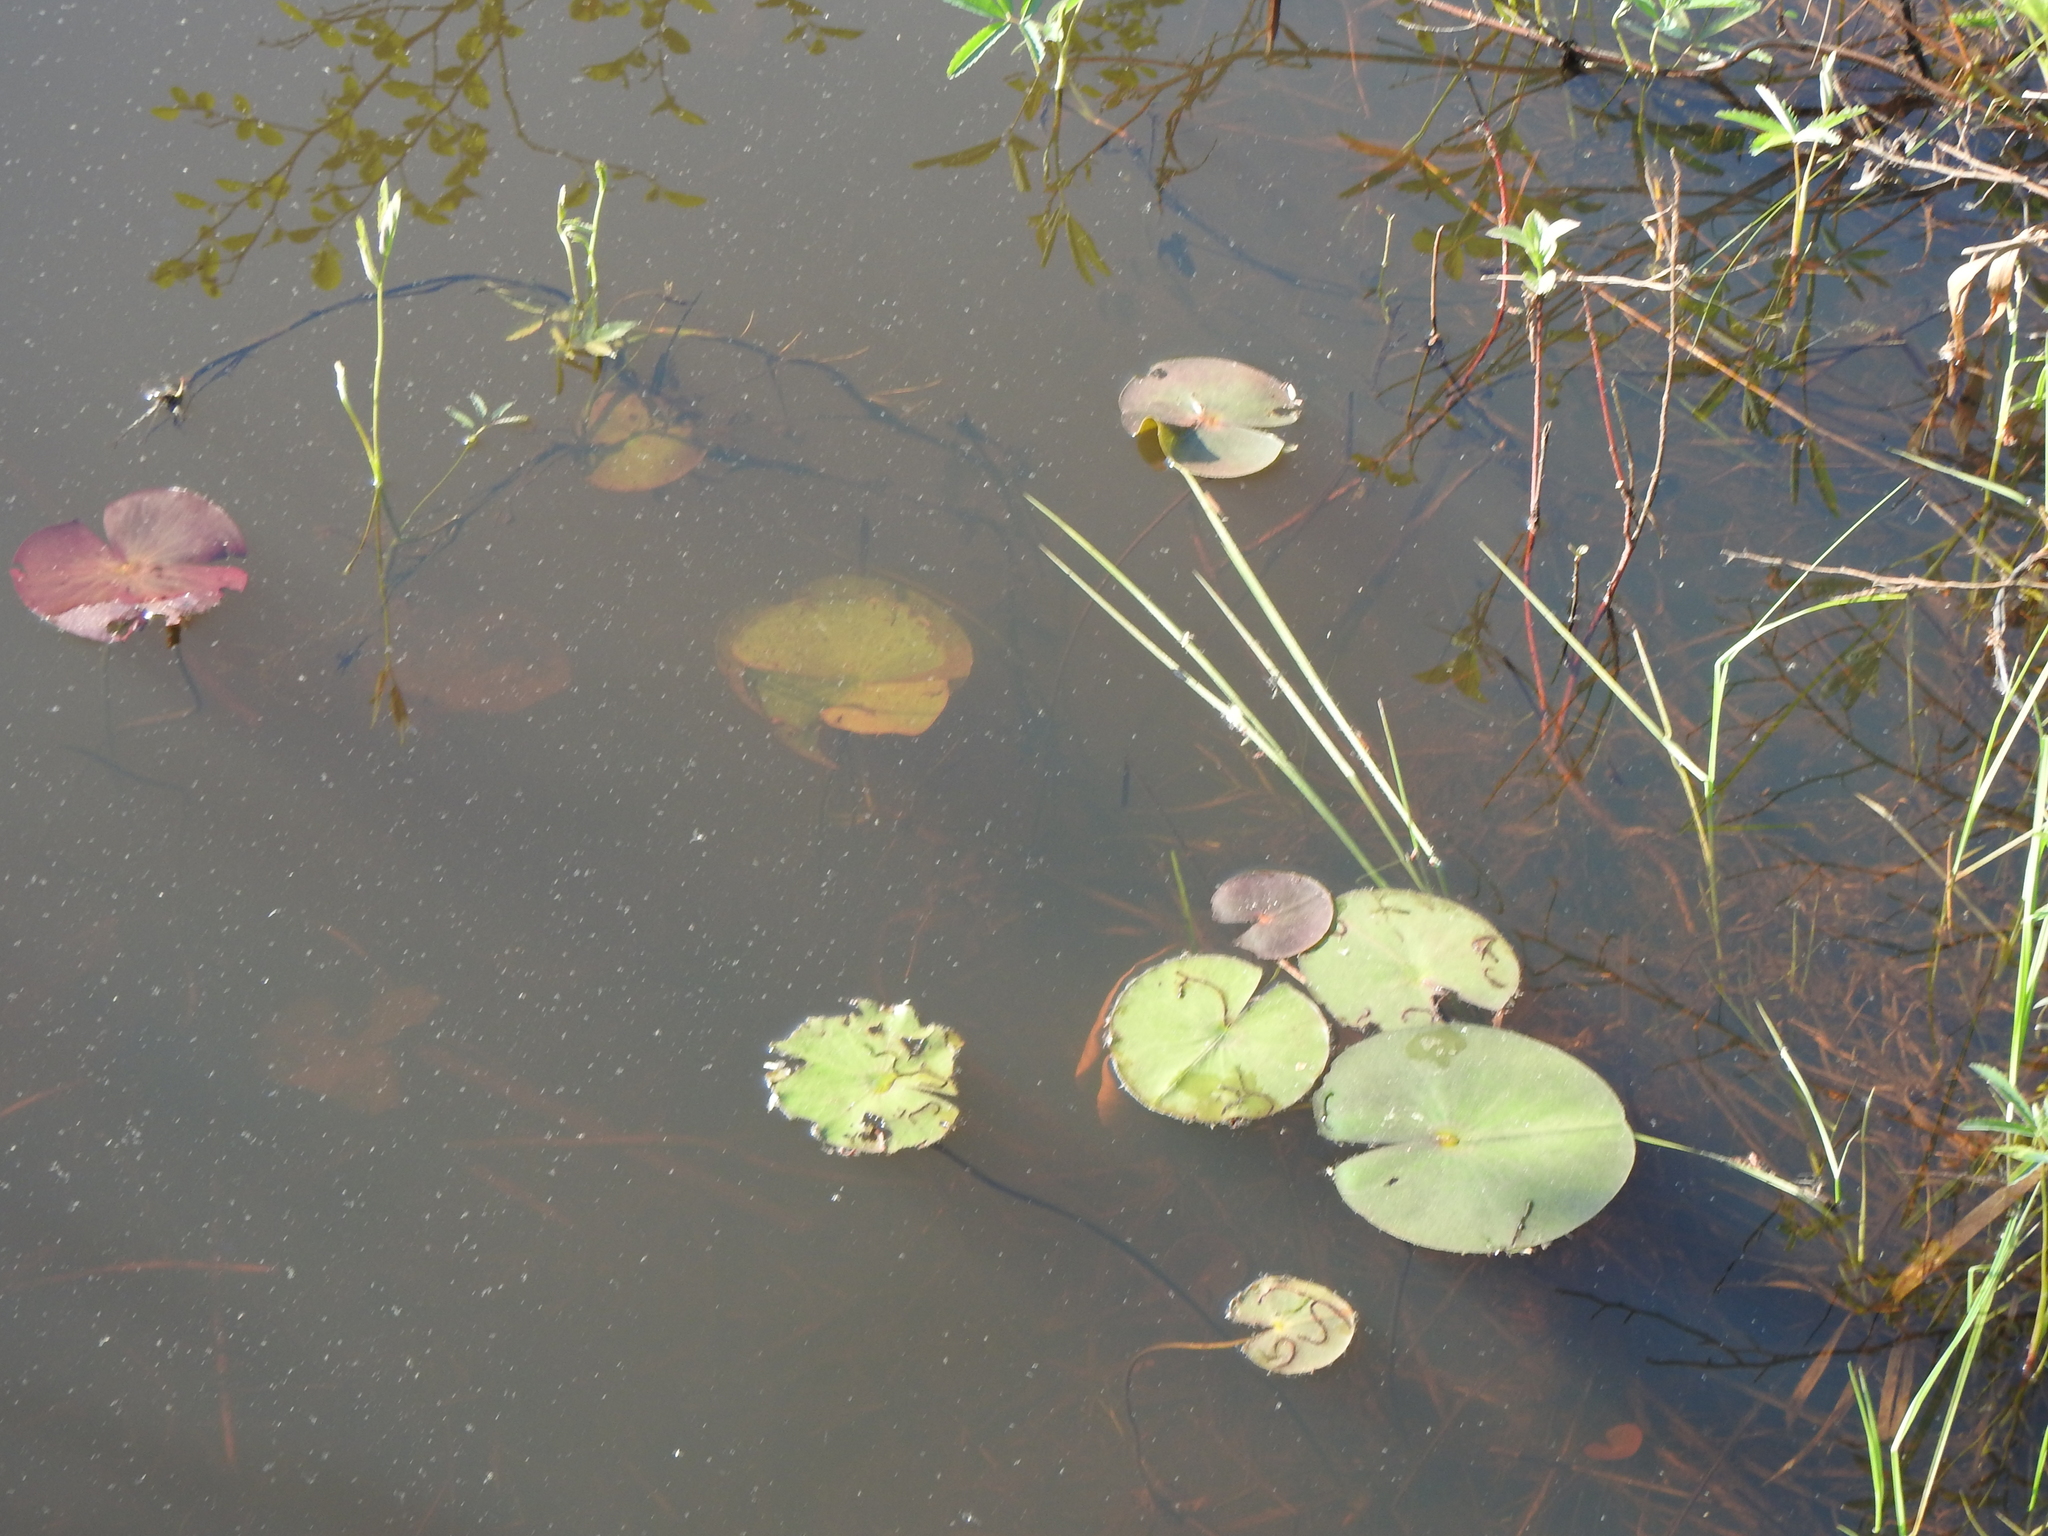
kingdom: Plantae
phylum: Tracheophyta
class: Magnoliopsida
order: Nymphaeales
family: Nymphaeaceae
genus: Nymphaea
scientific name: Nymphaea odorata
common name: Fragrant water-lily
